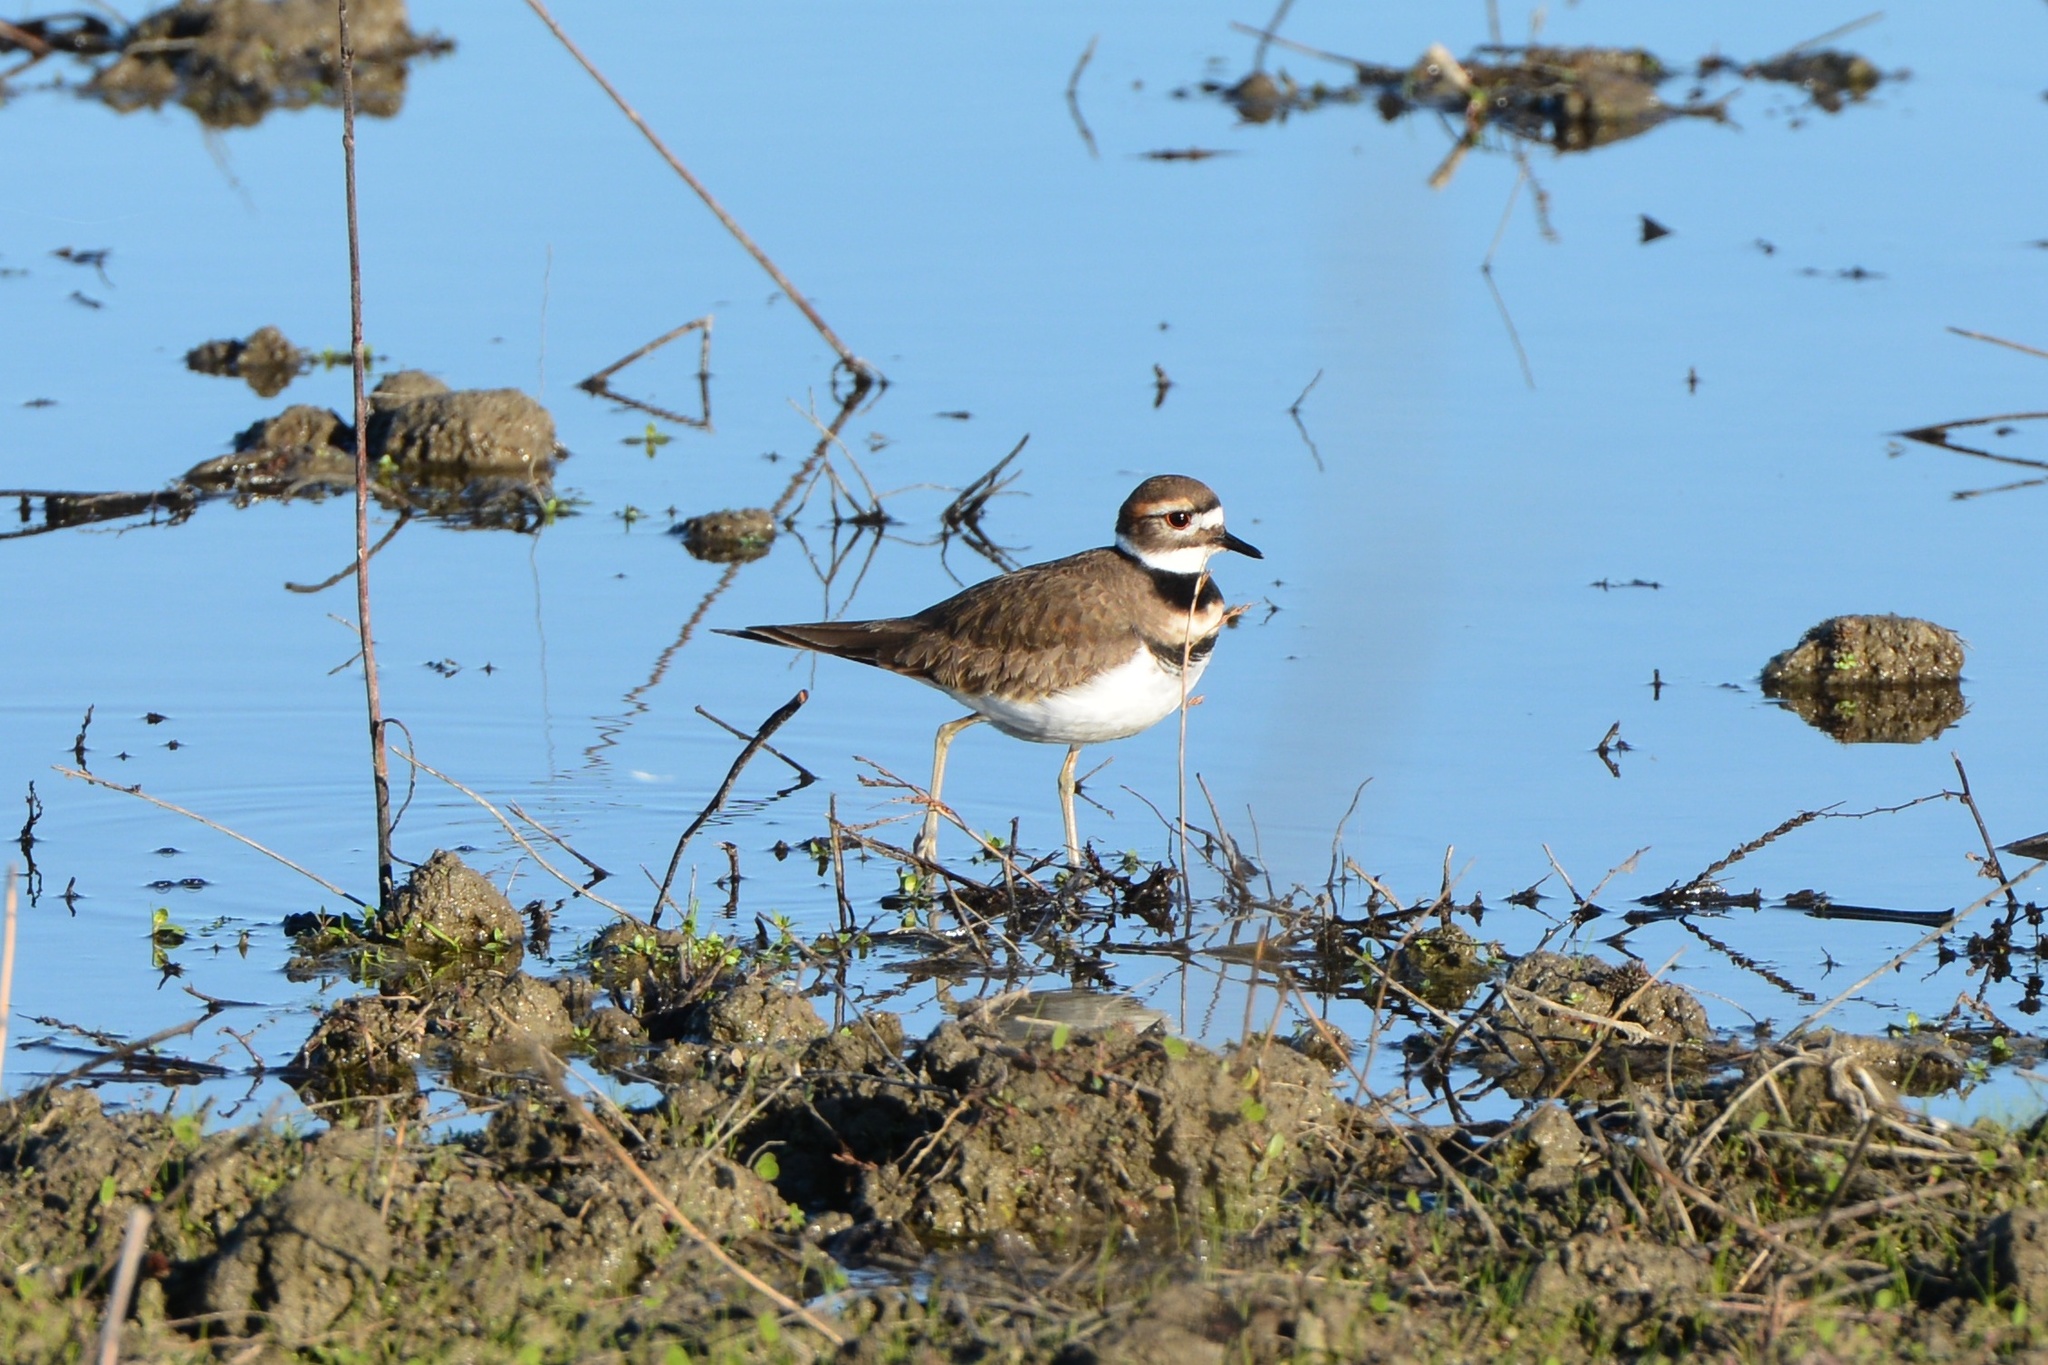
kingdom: Animalia
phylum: Chordata
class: Aves
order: Charadriiformes
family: Charadriidae
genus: Charadrius
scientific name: Charadrius vociferus
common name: Killdeer
